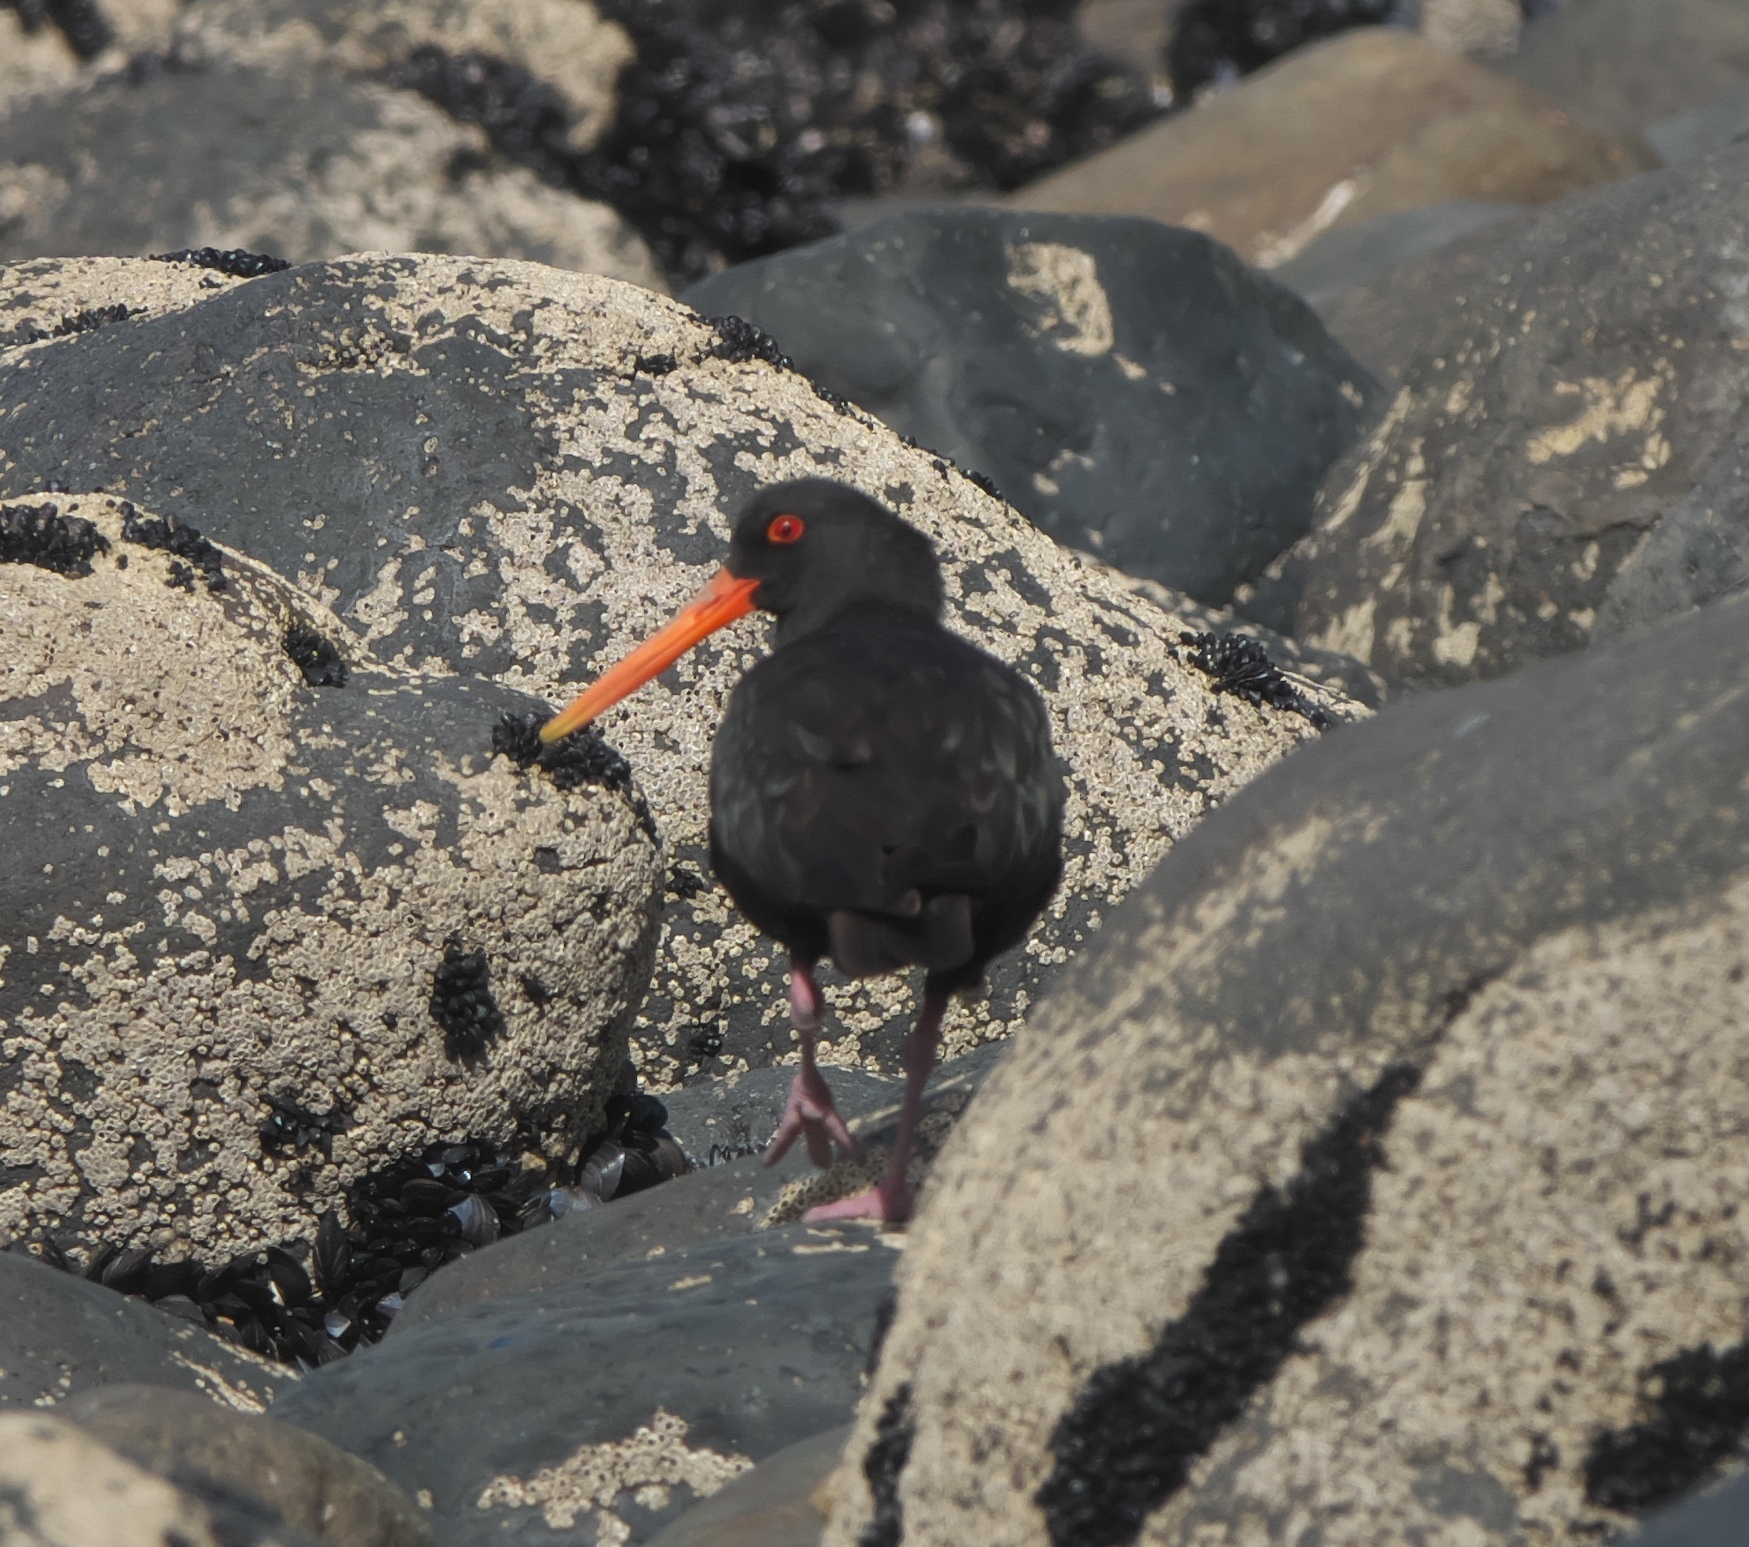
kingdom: Animalia
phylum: Chordata
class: Aves
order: Charadriiformes
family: Haematopodidae
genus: Haematopus
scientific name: Haematopus unicolor
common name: Variable oystercatcher
